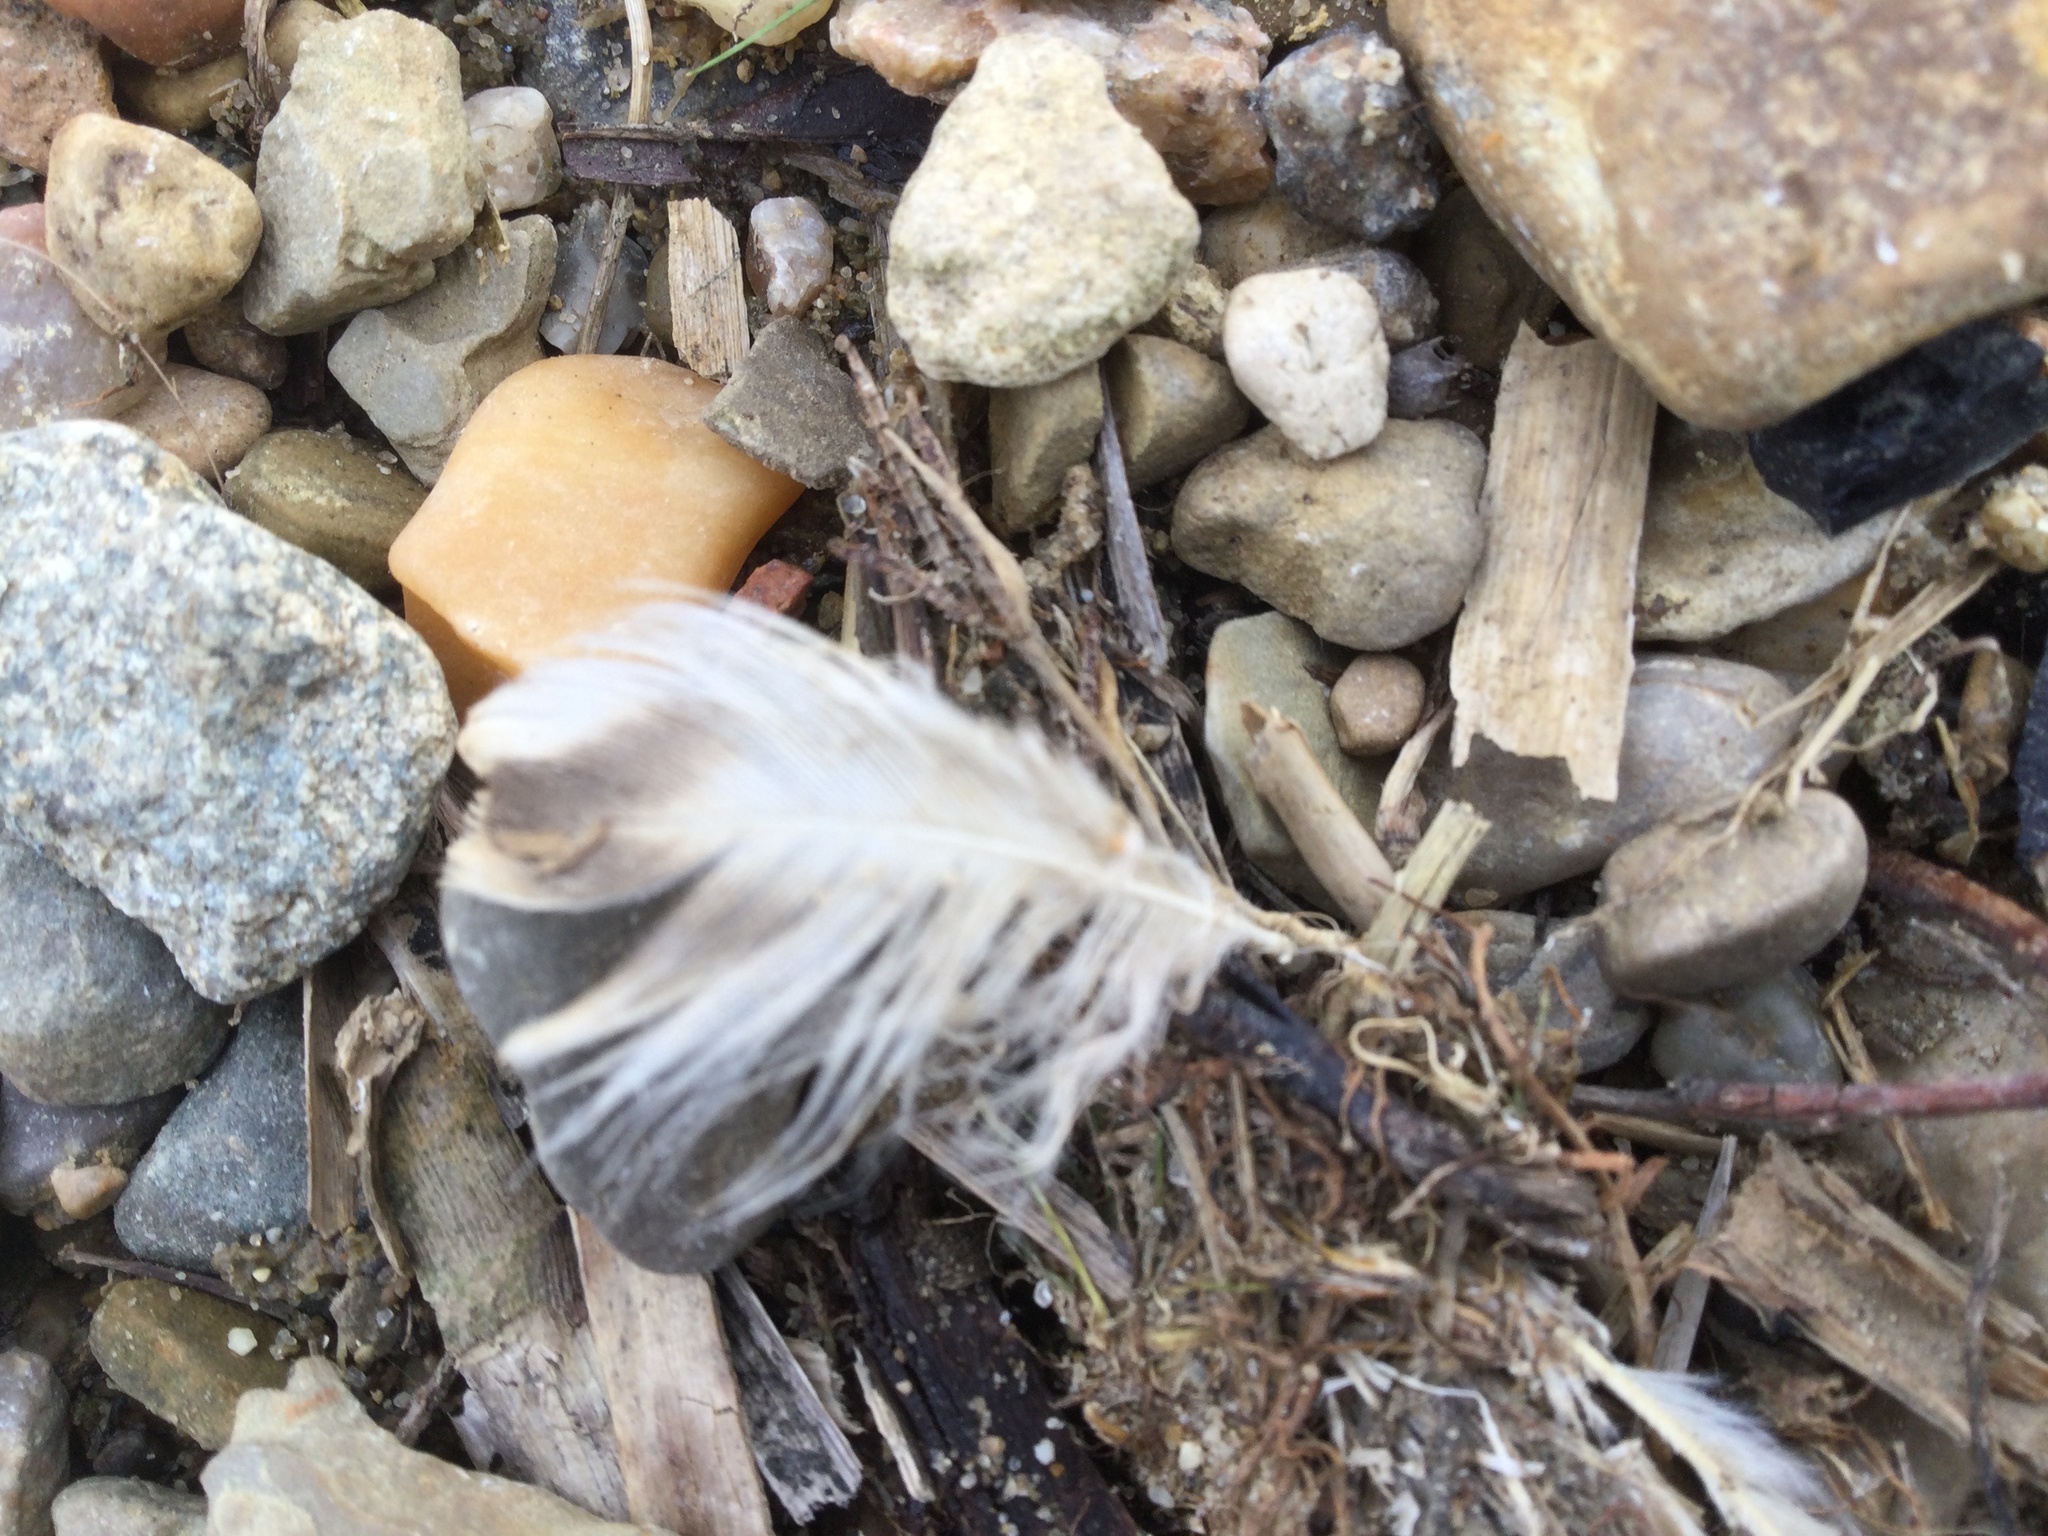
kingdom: Animalia
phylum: Chordata
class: Aves
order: Anseriformes
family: Anatidae
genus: Anas
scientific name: Anas platyrhynchos
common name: Mallard
